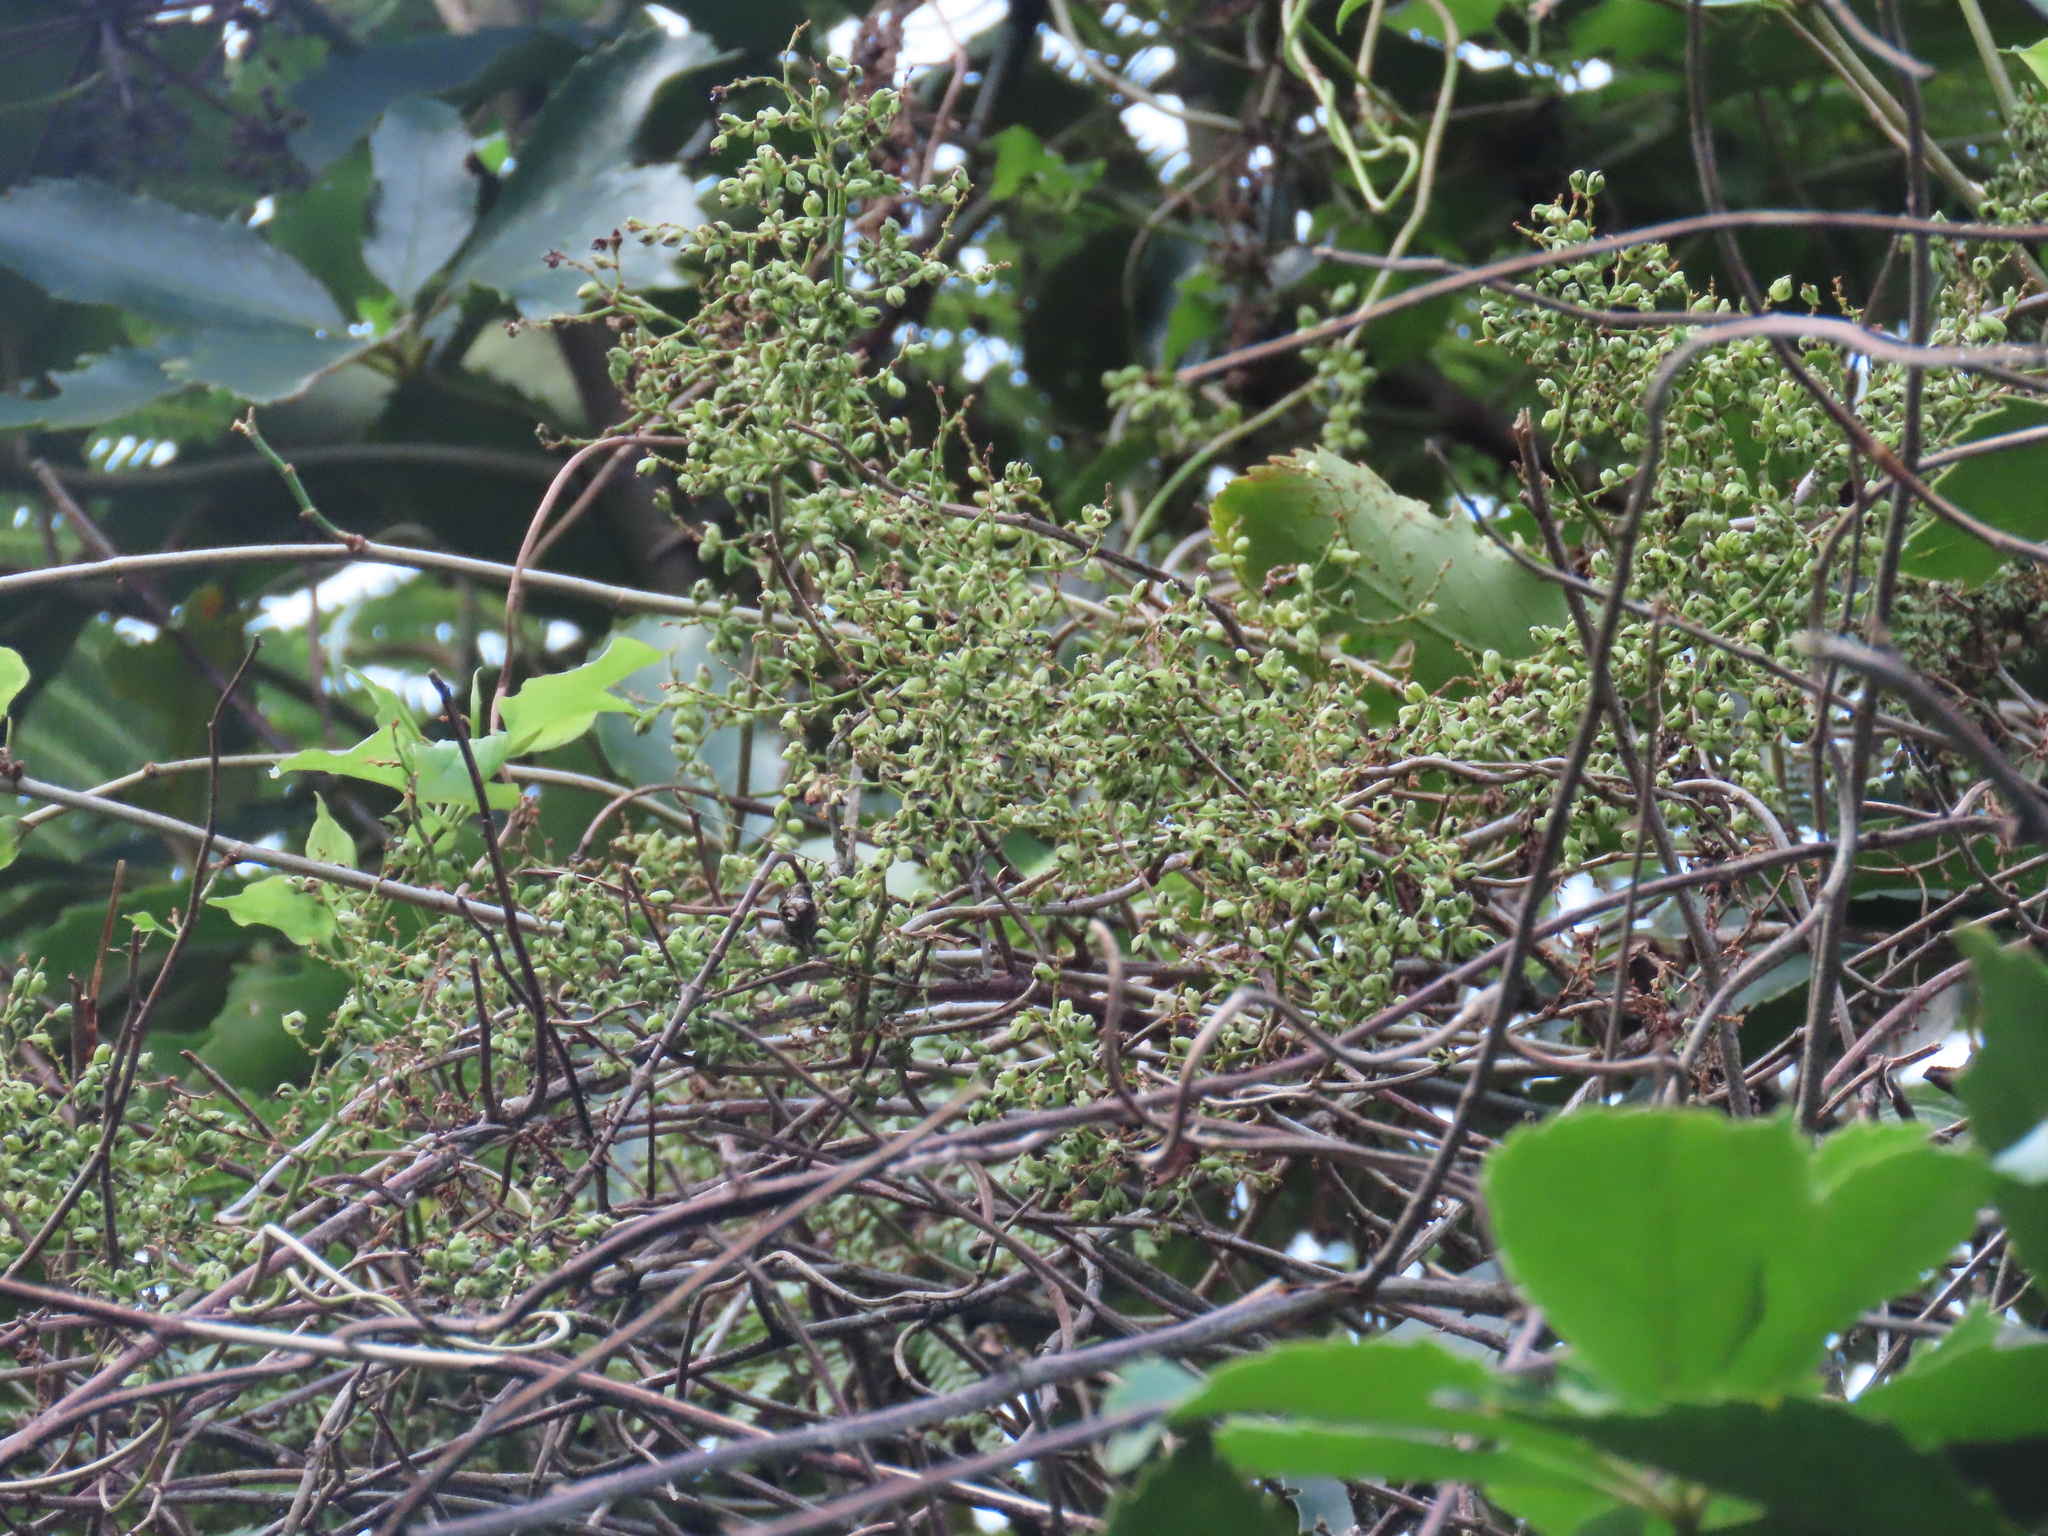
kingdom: Plantae
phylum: Tracheophyta
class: Magnoliopsida
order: Caryophyllales
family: Polygonaceae
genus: Muehlenbeckia
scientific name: Muehlenbeckia australis
